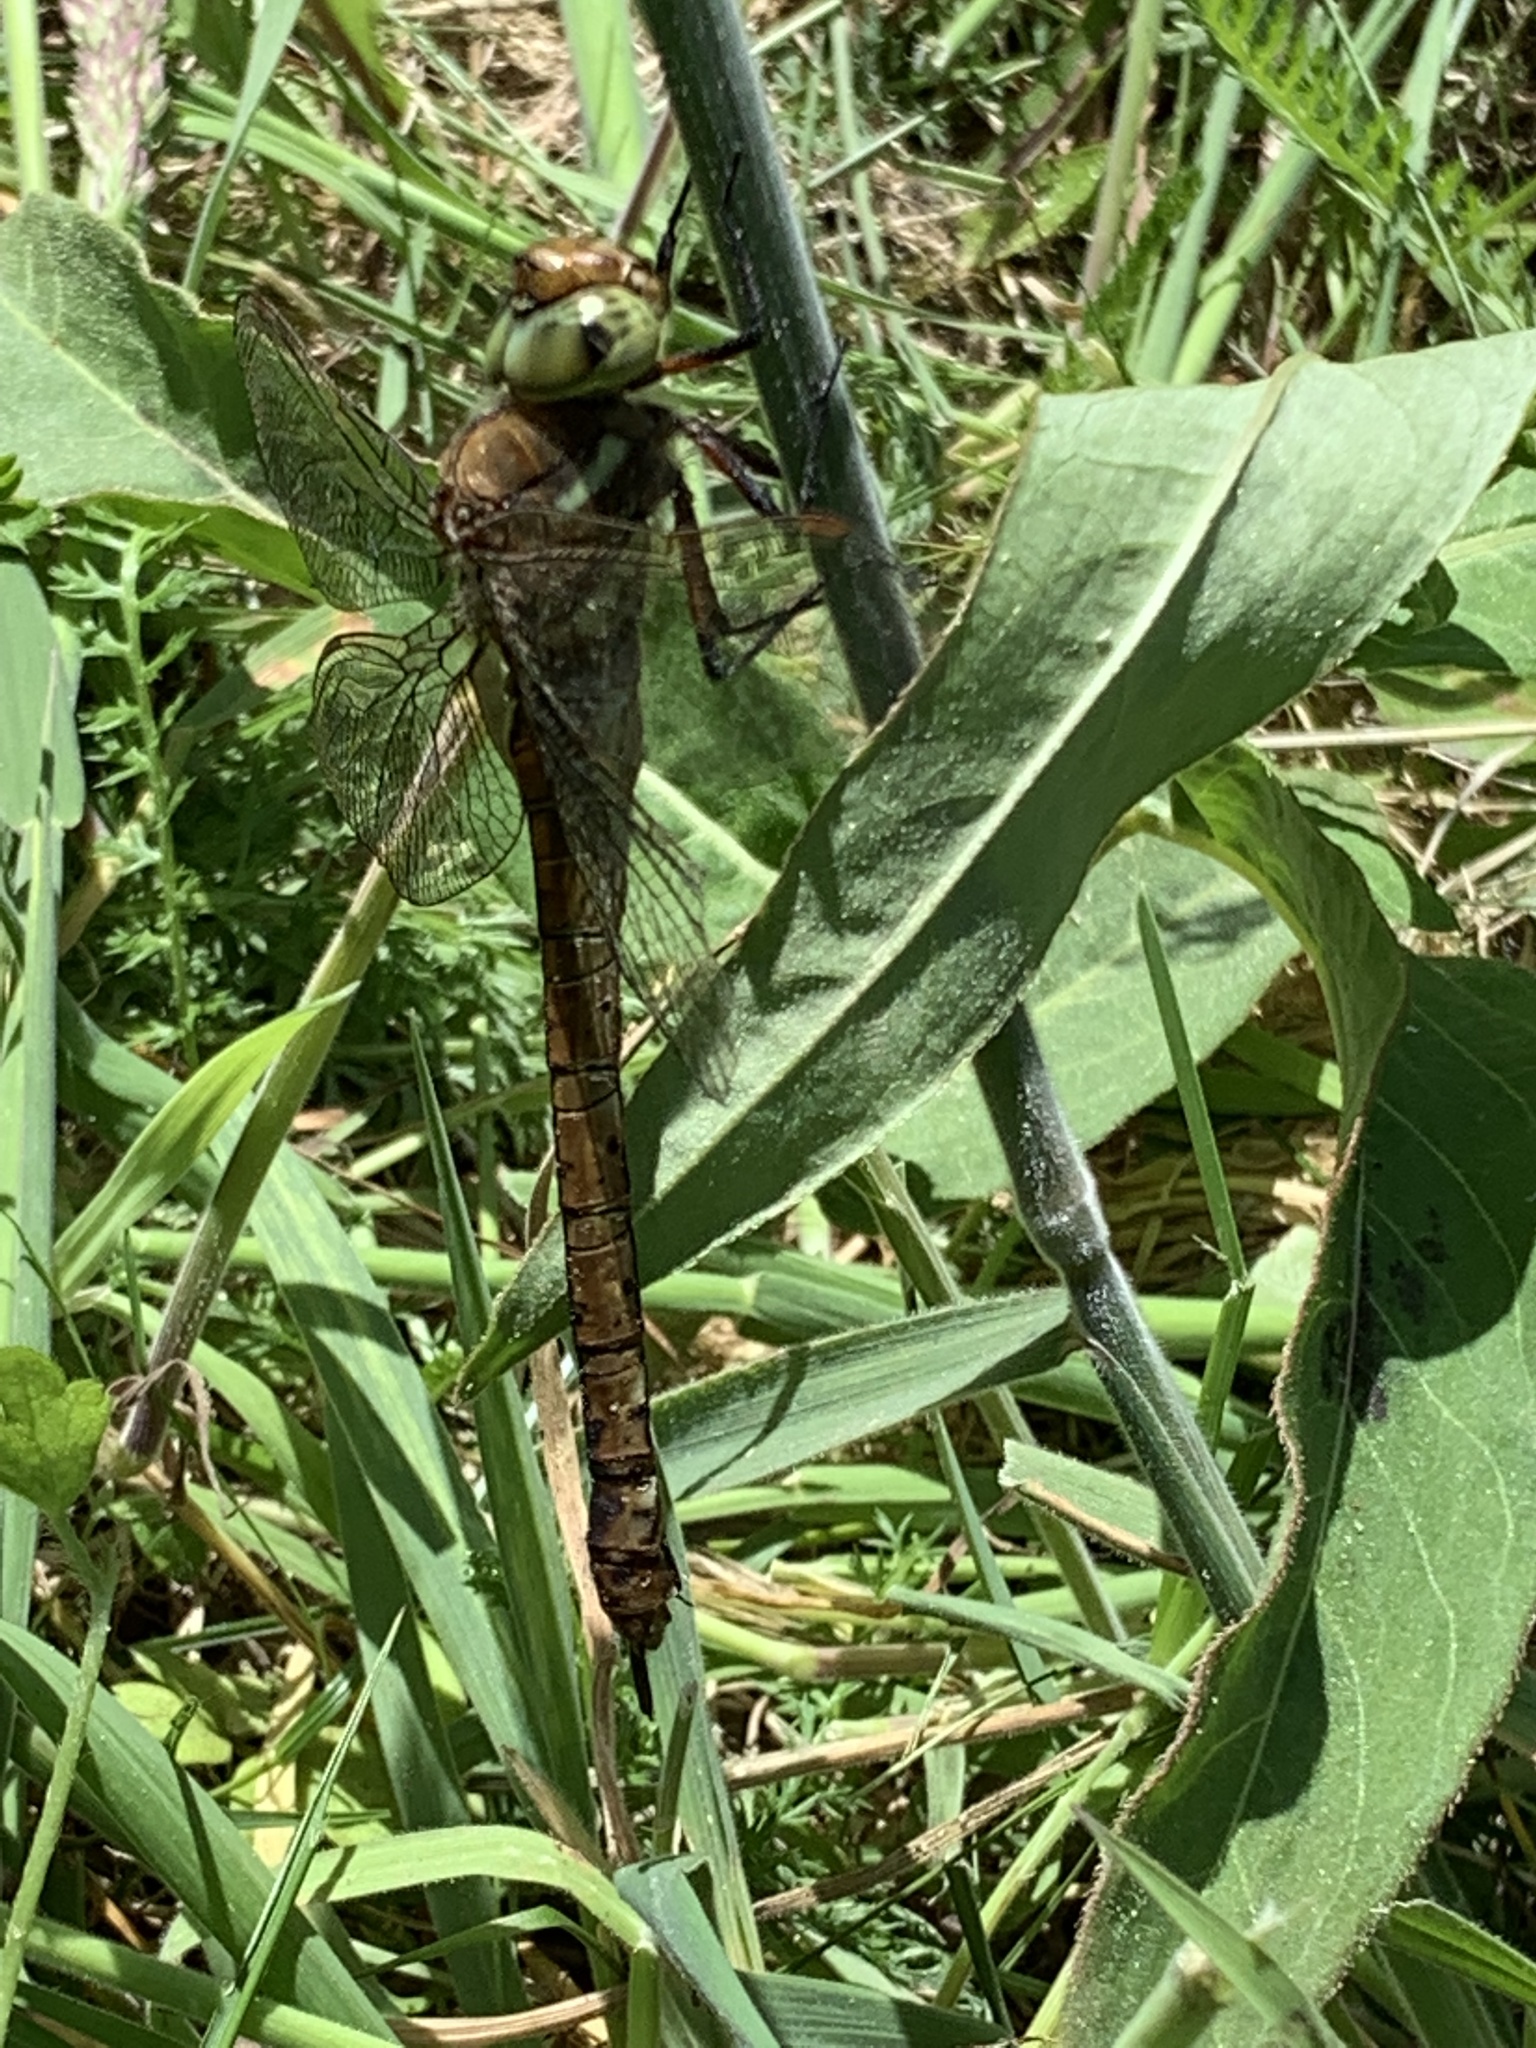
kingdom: Animalia
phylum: Arthropoda
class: Insecta
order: Odonata
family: Aeshnidae
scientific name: Aeshnidae
